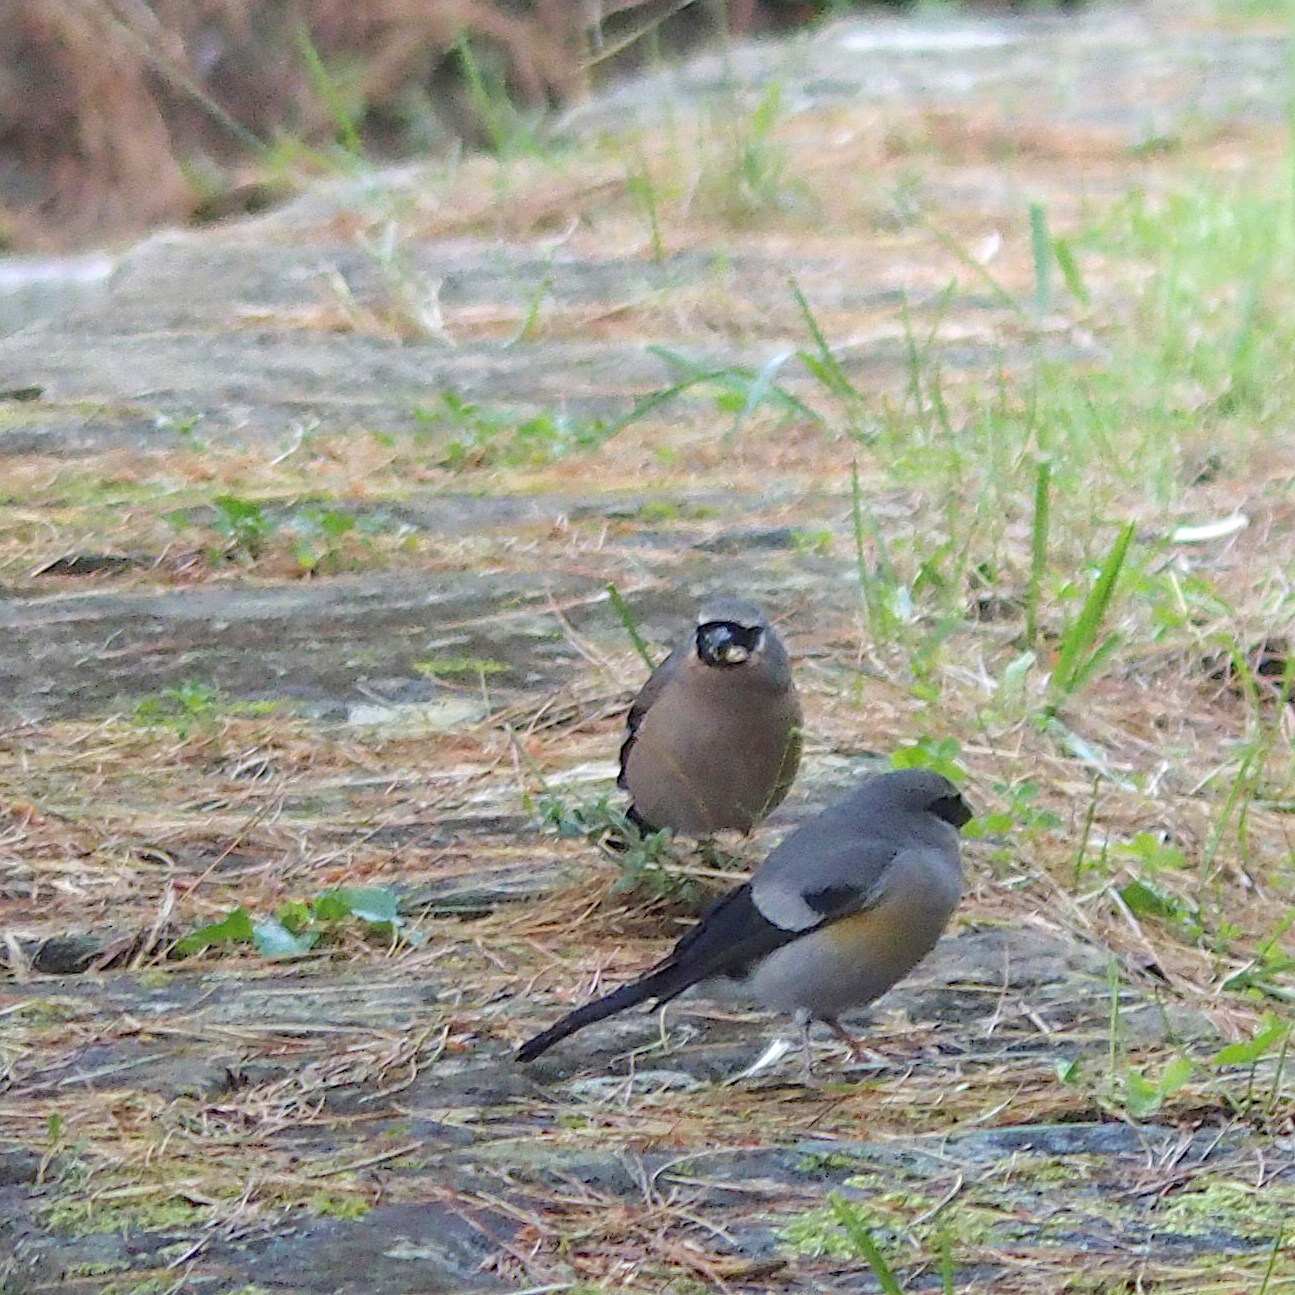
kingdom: Animalia
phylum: Chordata
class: Aves
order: Passeriformes
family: Fringillidae
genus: Pyrrhula
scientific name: Pyrrhula owstoni
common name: Taiwan bullfinch
